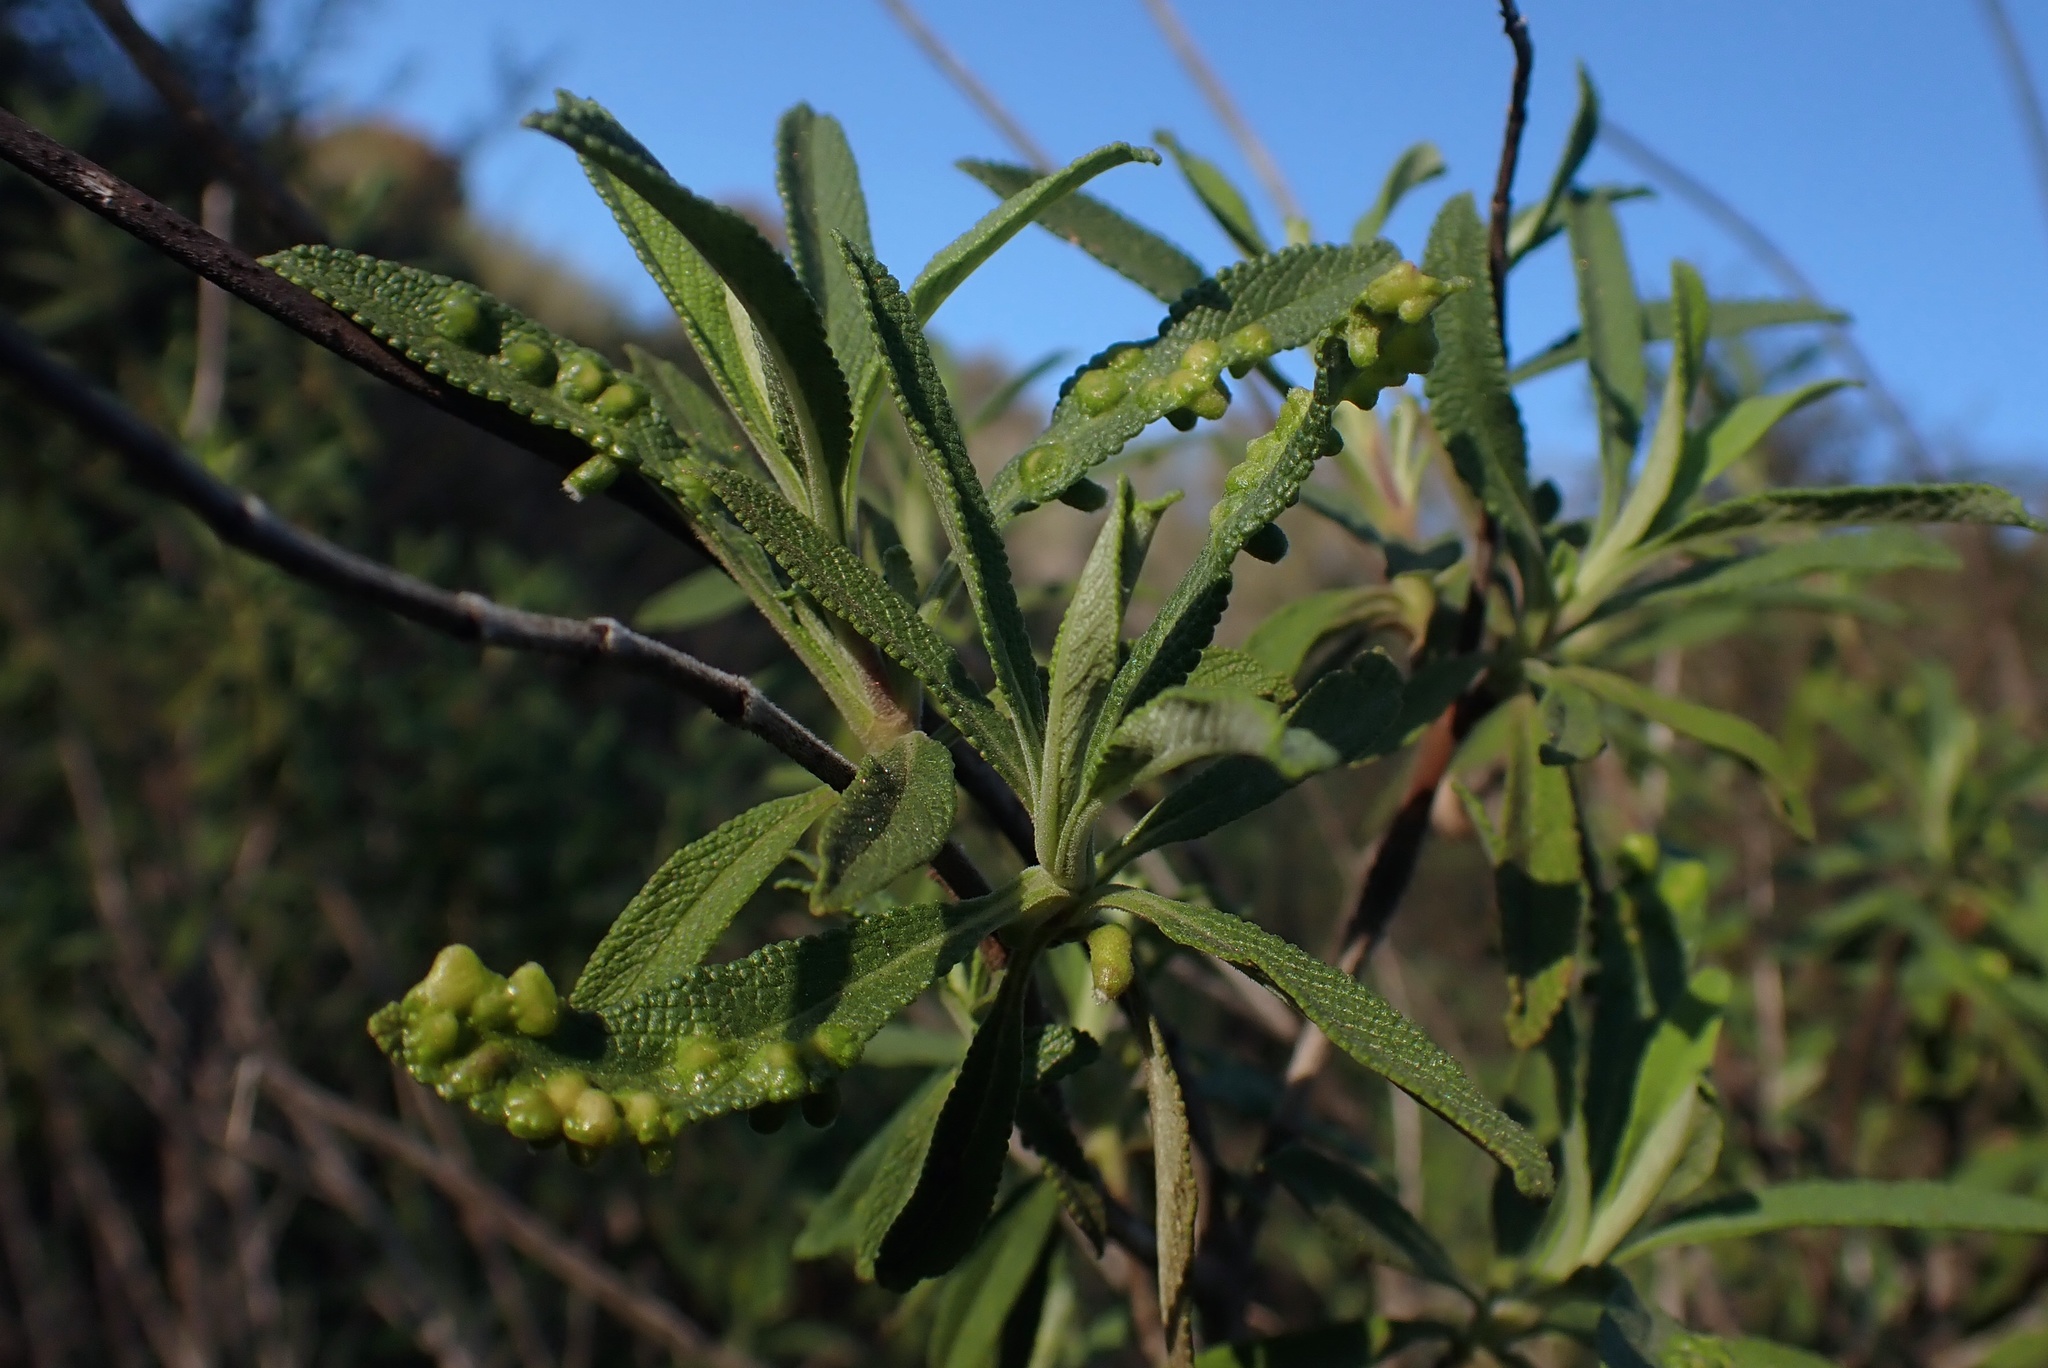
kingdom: Plantae
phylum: Tracheophyta
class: Magnoliopsida
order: Lamiales
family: Lamiaceae
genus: Salvia
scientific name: Salvia mellifera
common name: Black sage
